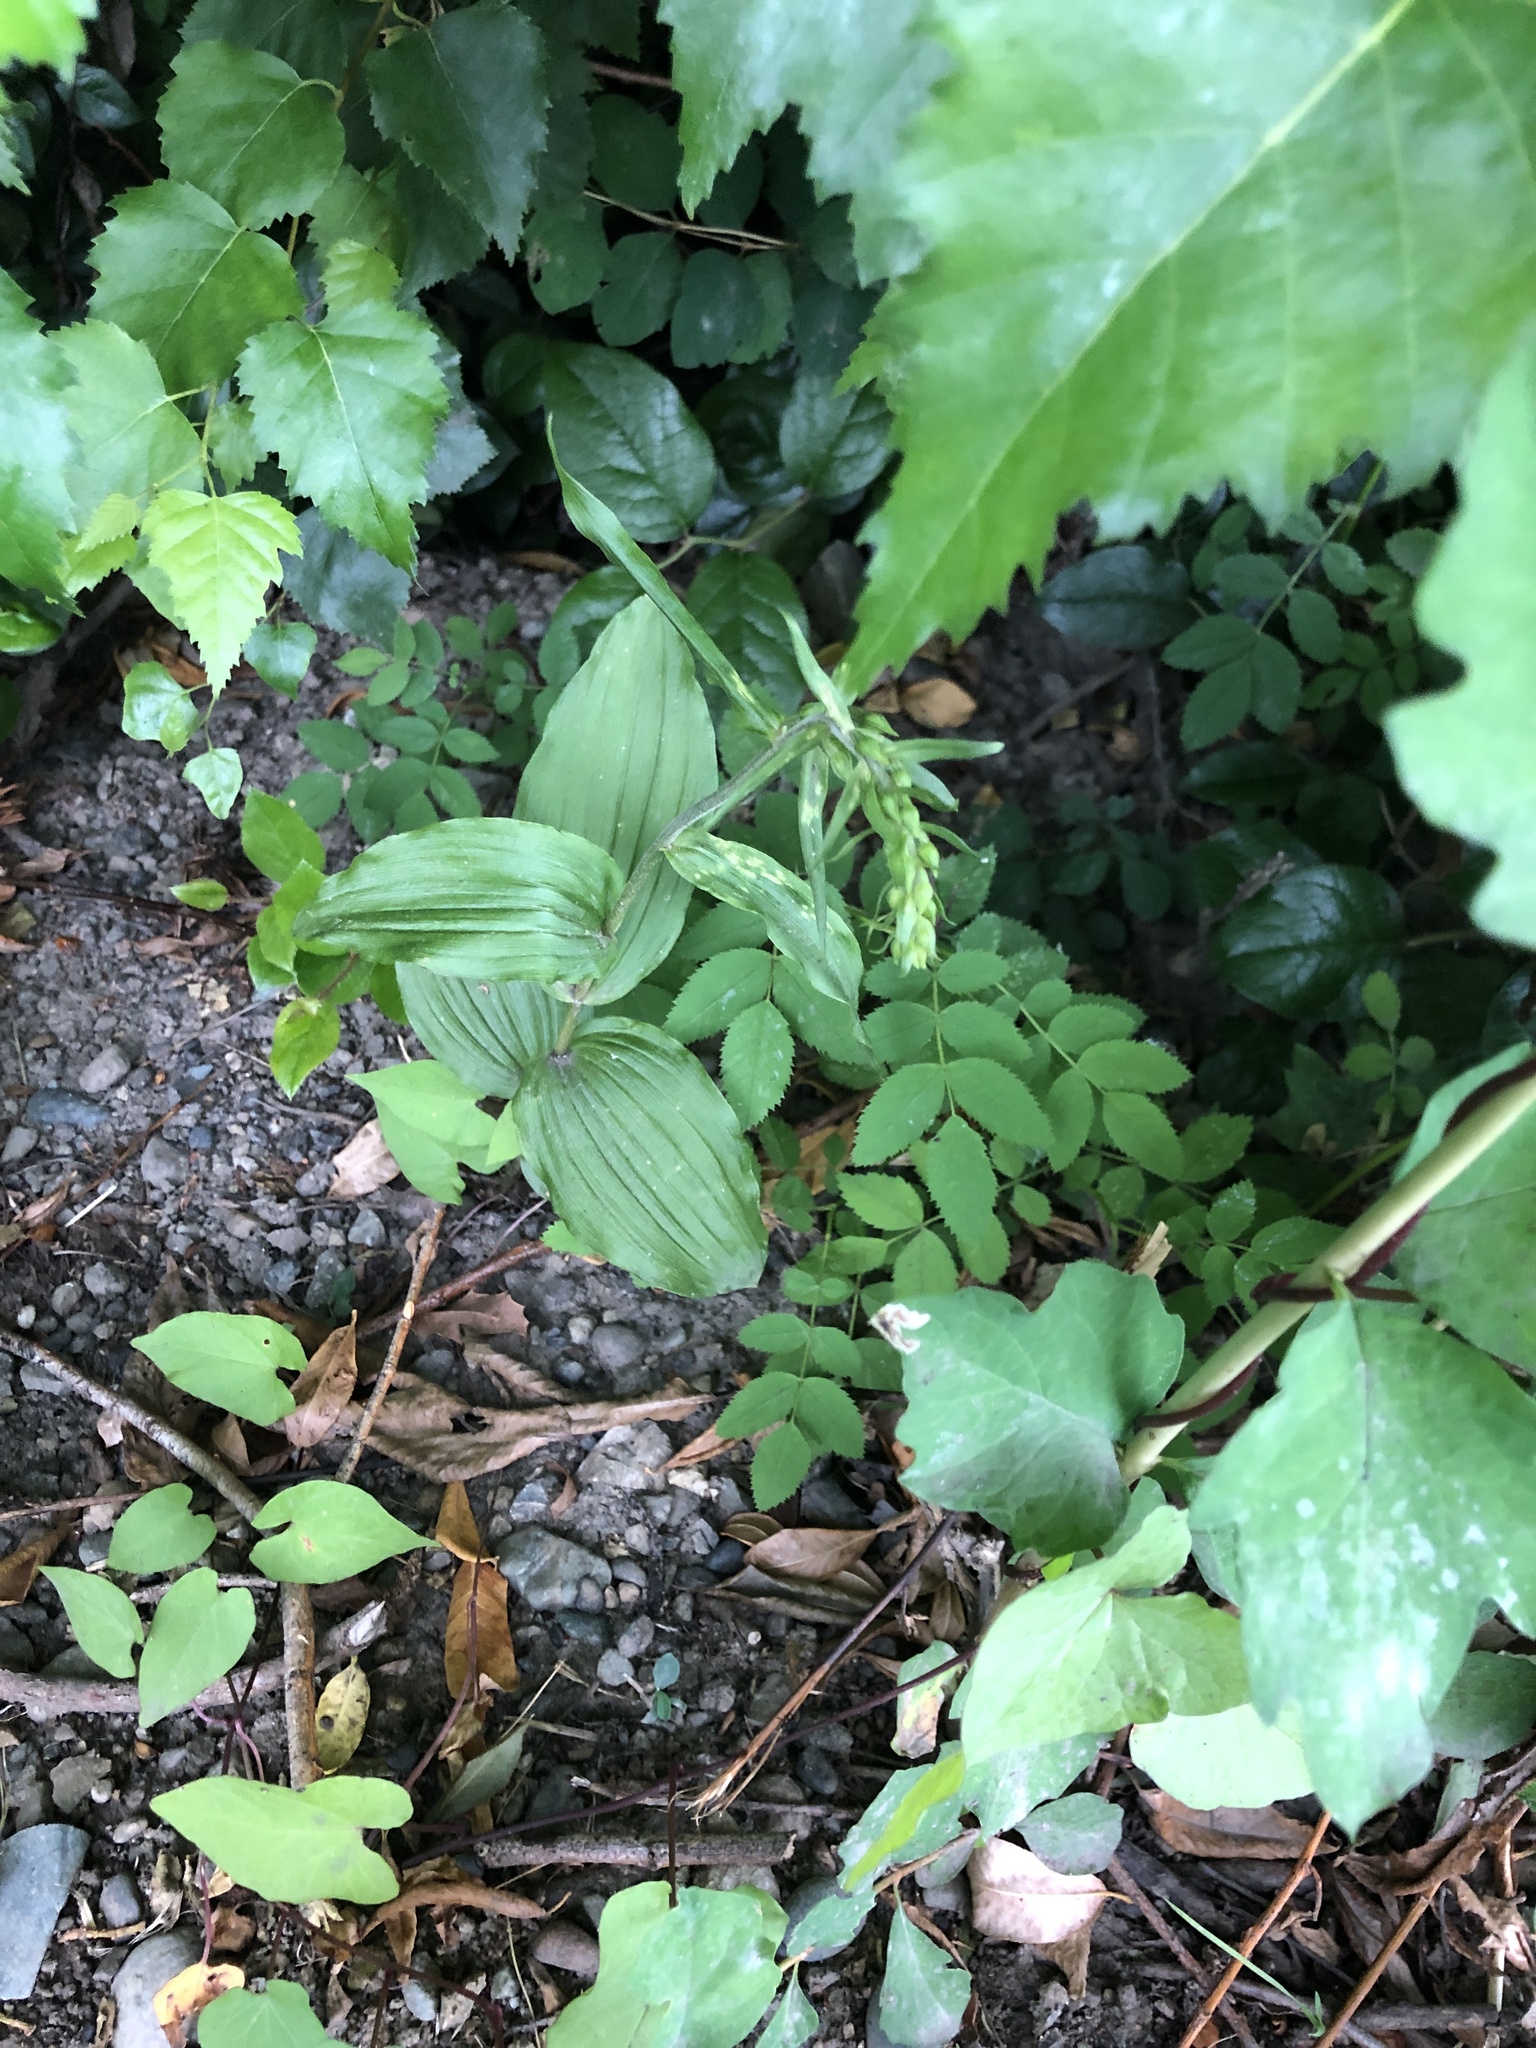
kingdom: Plantae
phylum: Tracheophyta
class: Liliopsida
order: Asparagales
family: Orchidaceae
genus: Epipactis
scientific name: Epipactis helleborine
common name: Broad-leaved helleborine
